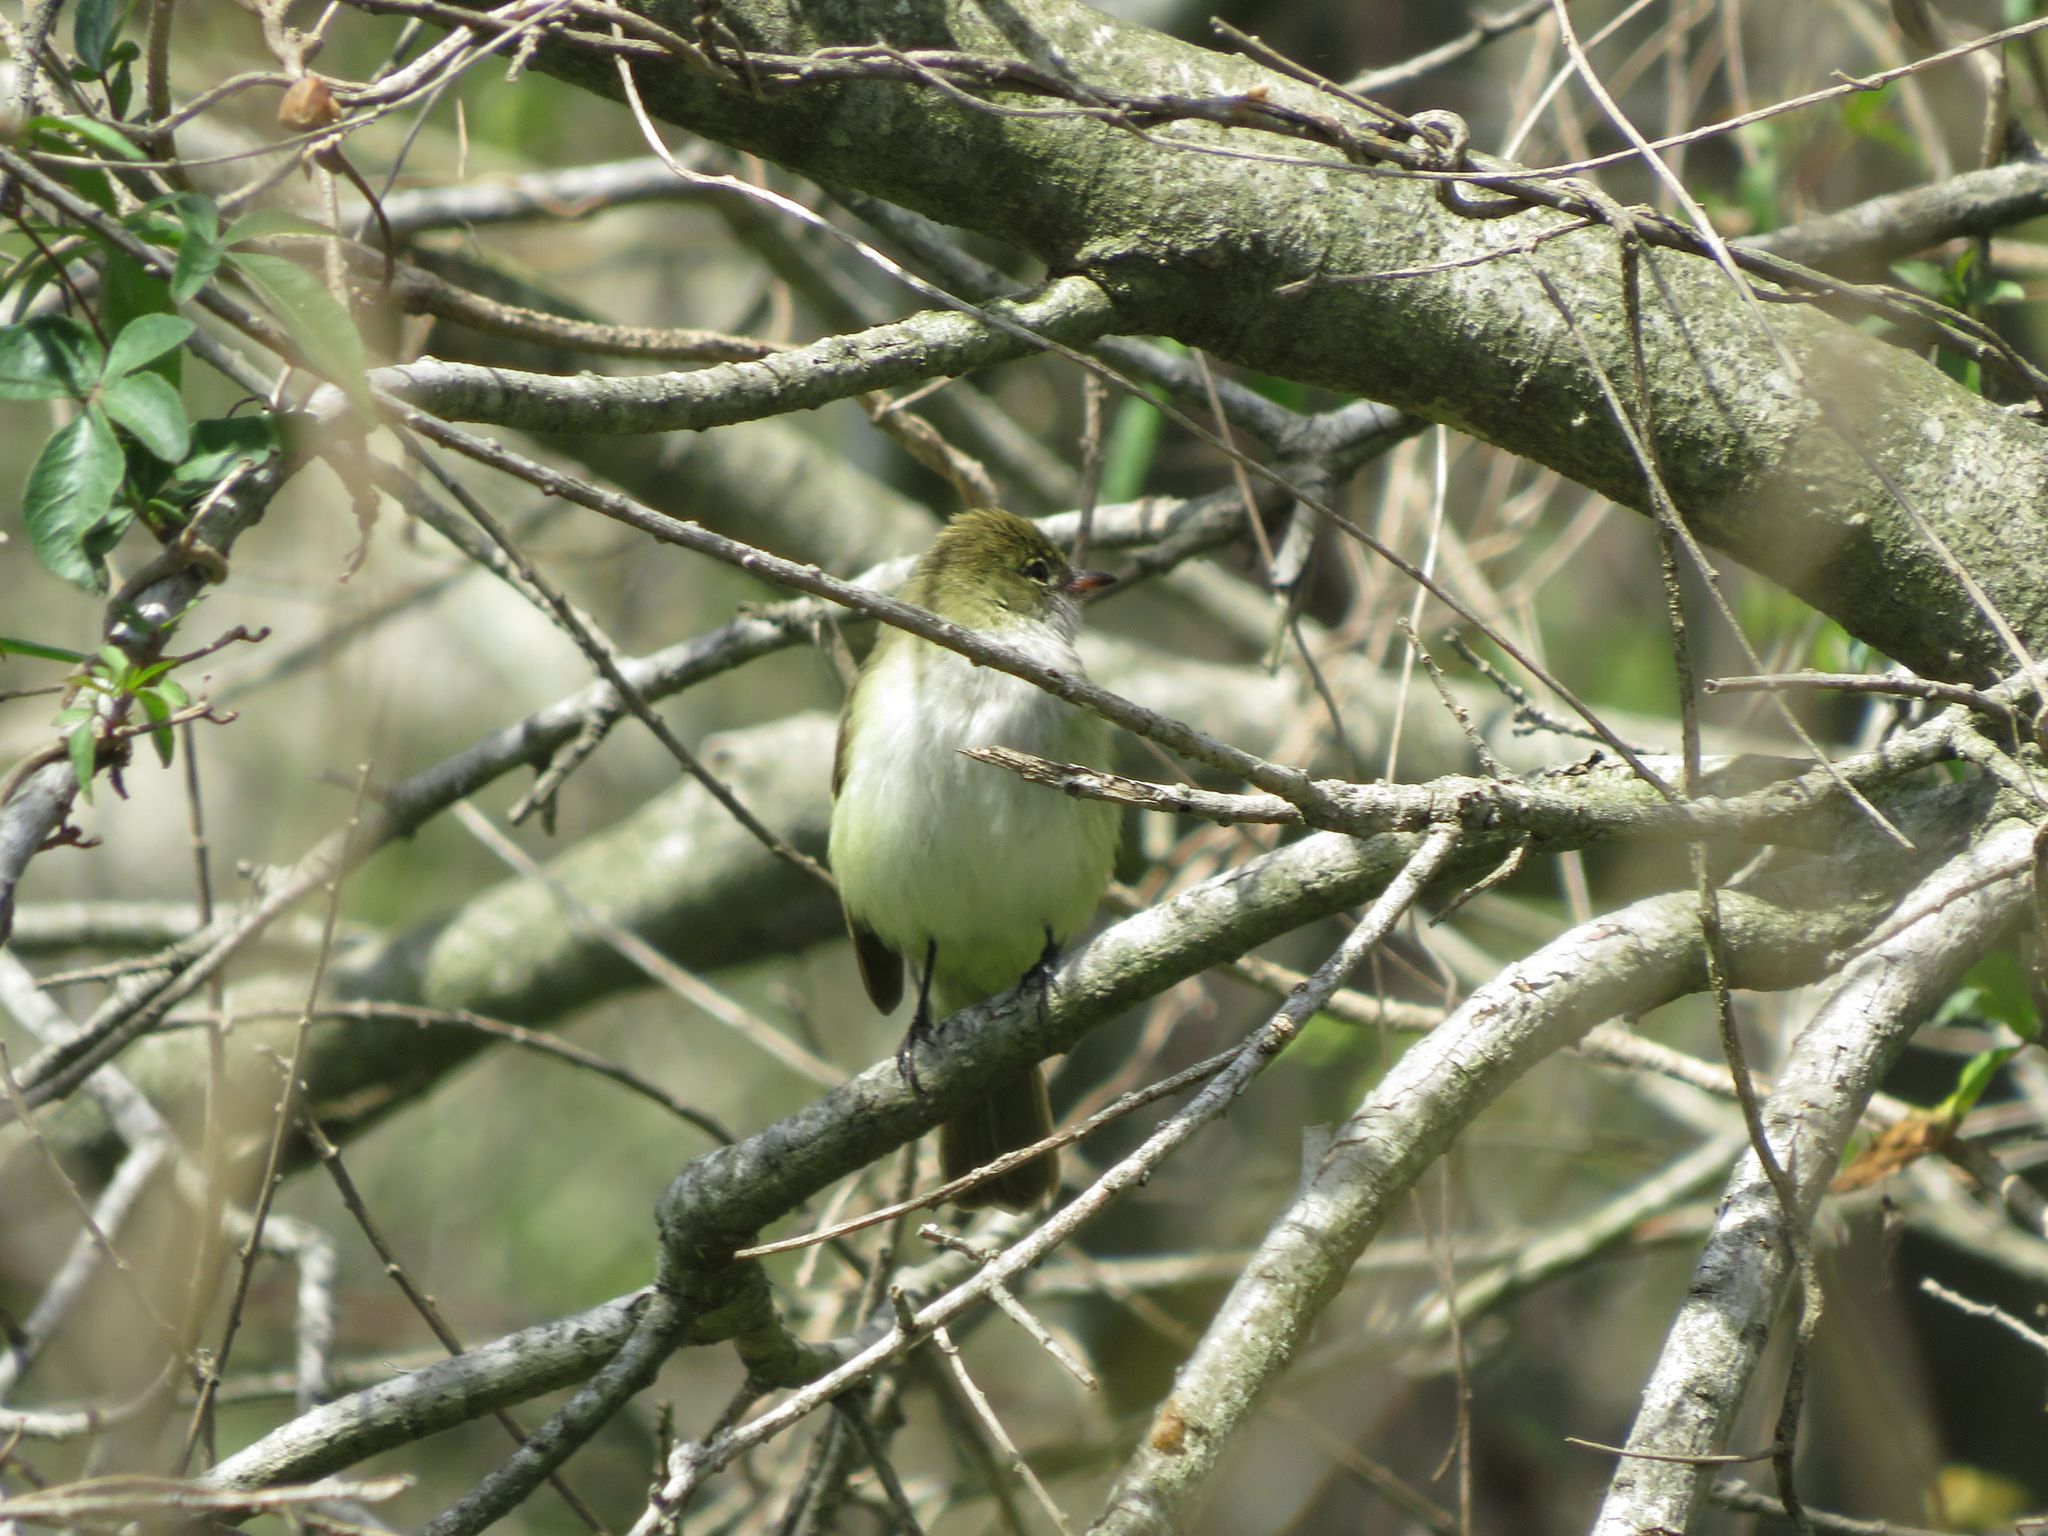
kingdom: Animalia
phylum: Chordata
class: Aves
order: Passeriformes
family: Tyrannidae
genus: Elaenia
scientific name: Elaenia parvirostris
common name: Small-billed elaenia
